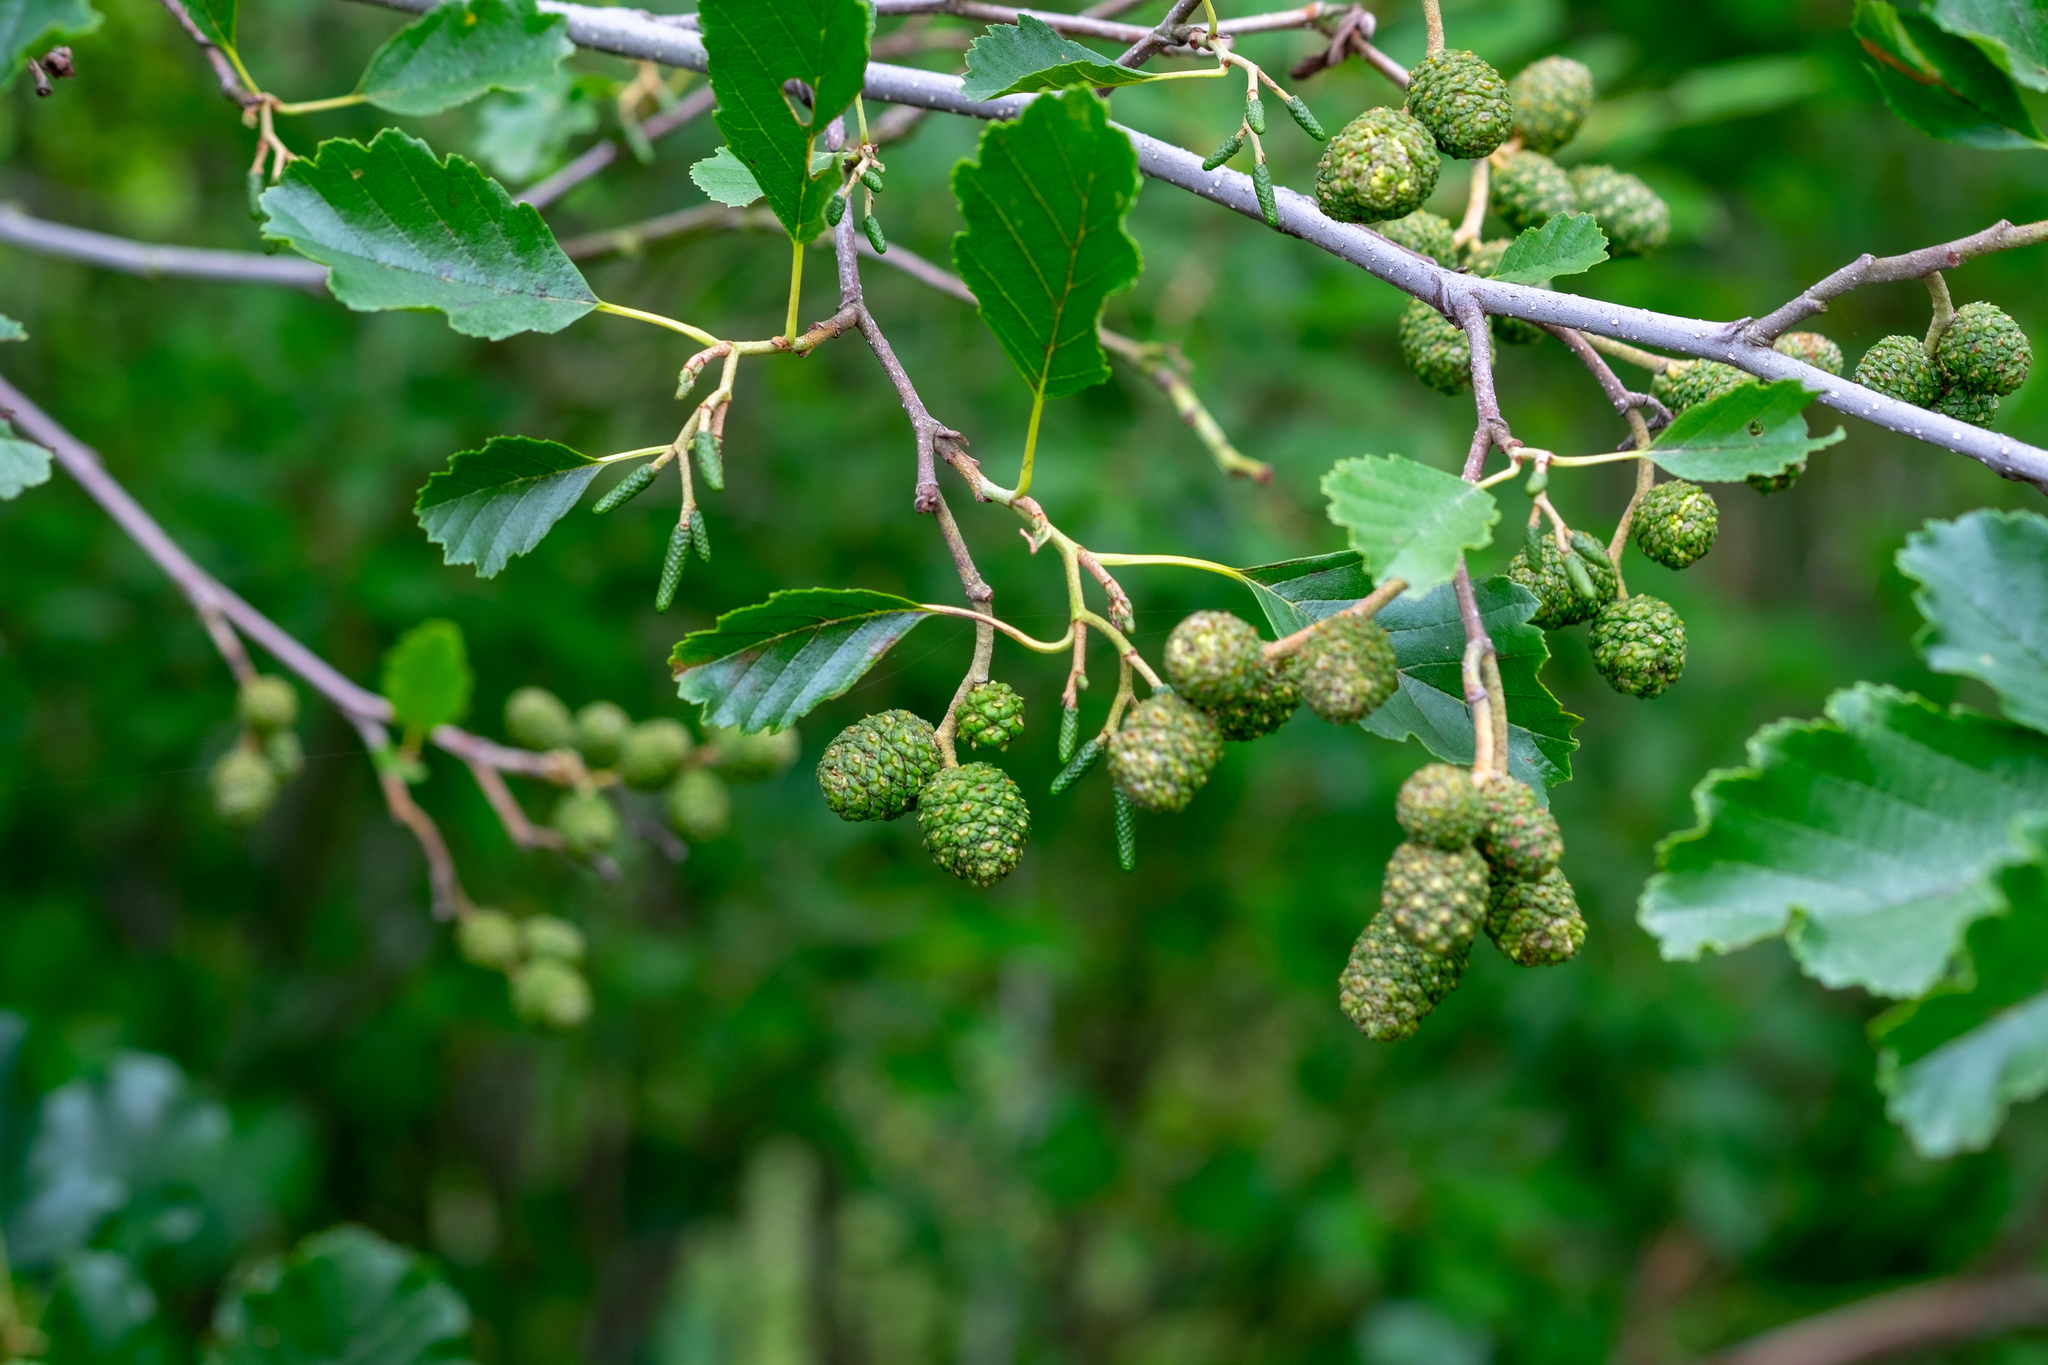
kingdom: Plantae
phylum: Tracheophyta
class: Magnoliopsida
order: Fagales
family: Betulaceae
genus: Alnus
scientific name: Alnus glutinosa
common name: Black alder
